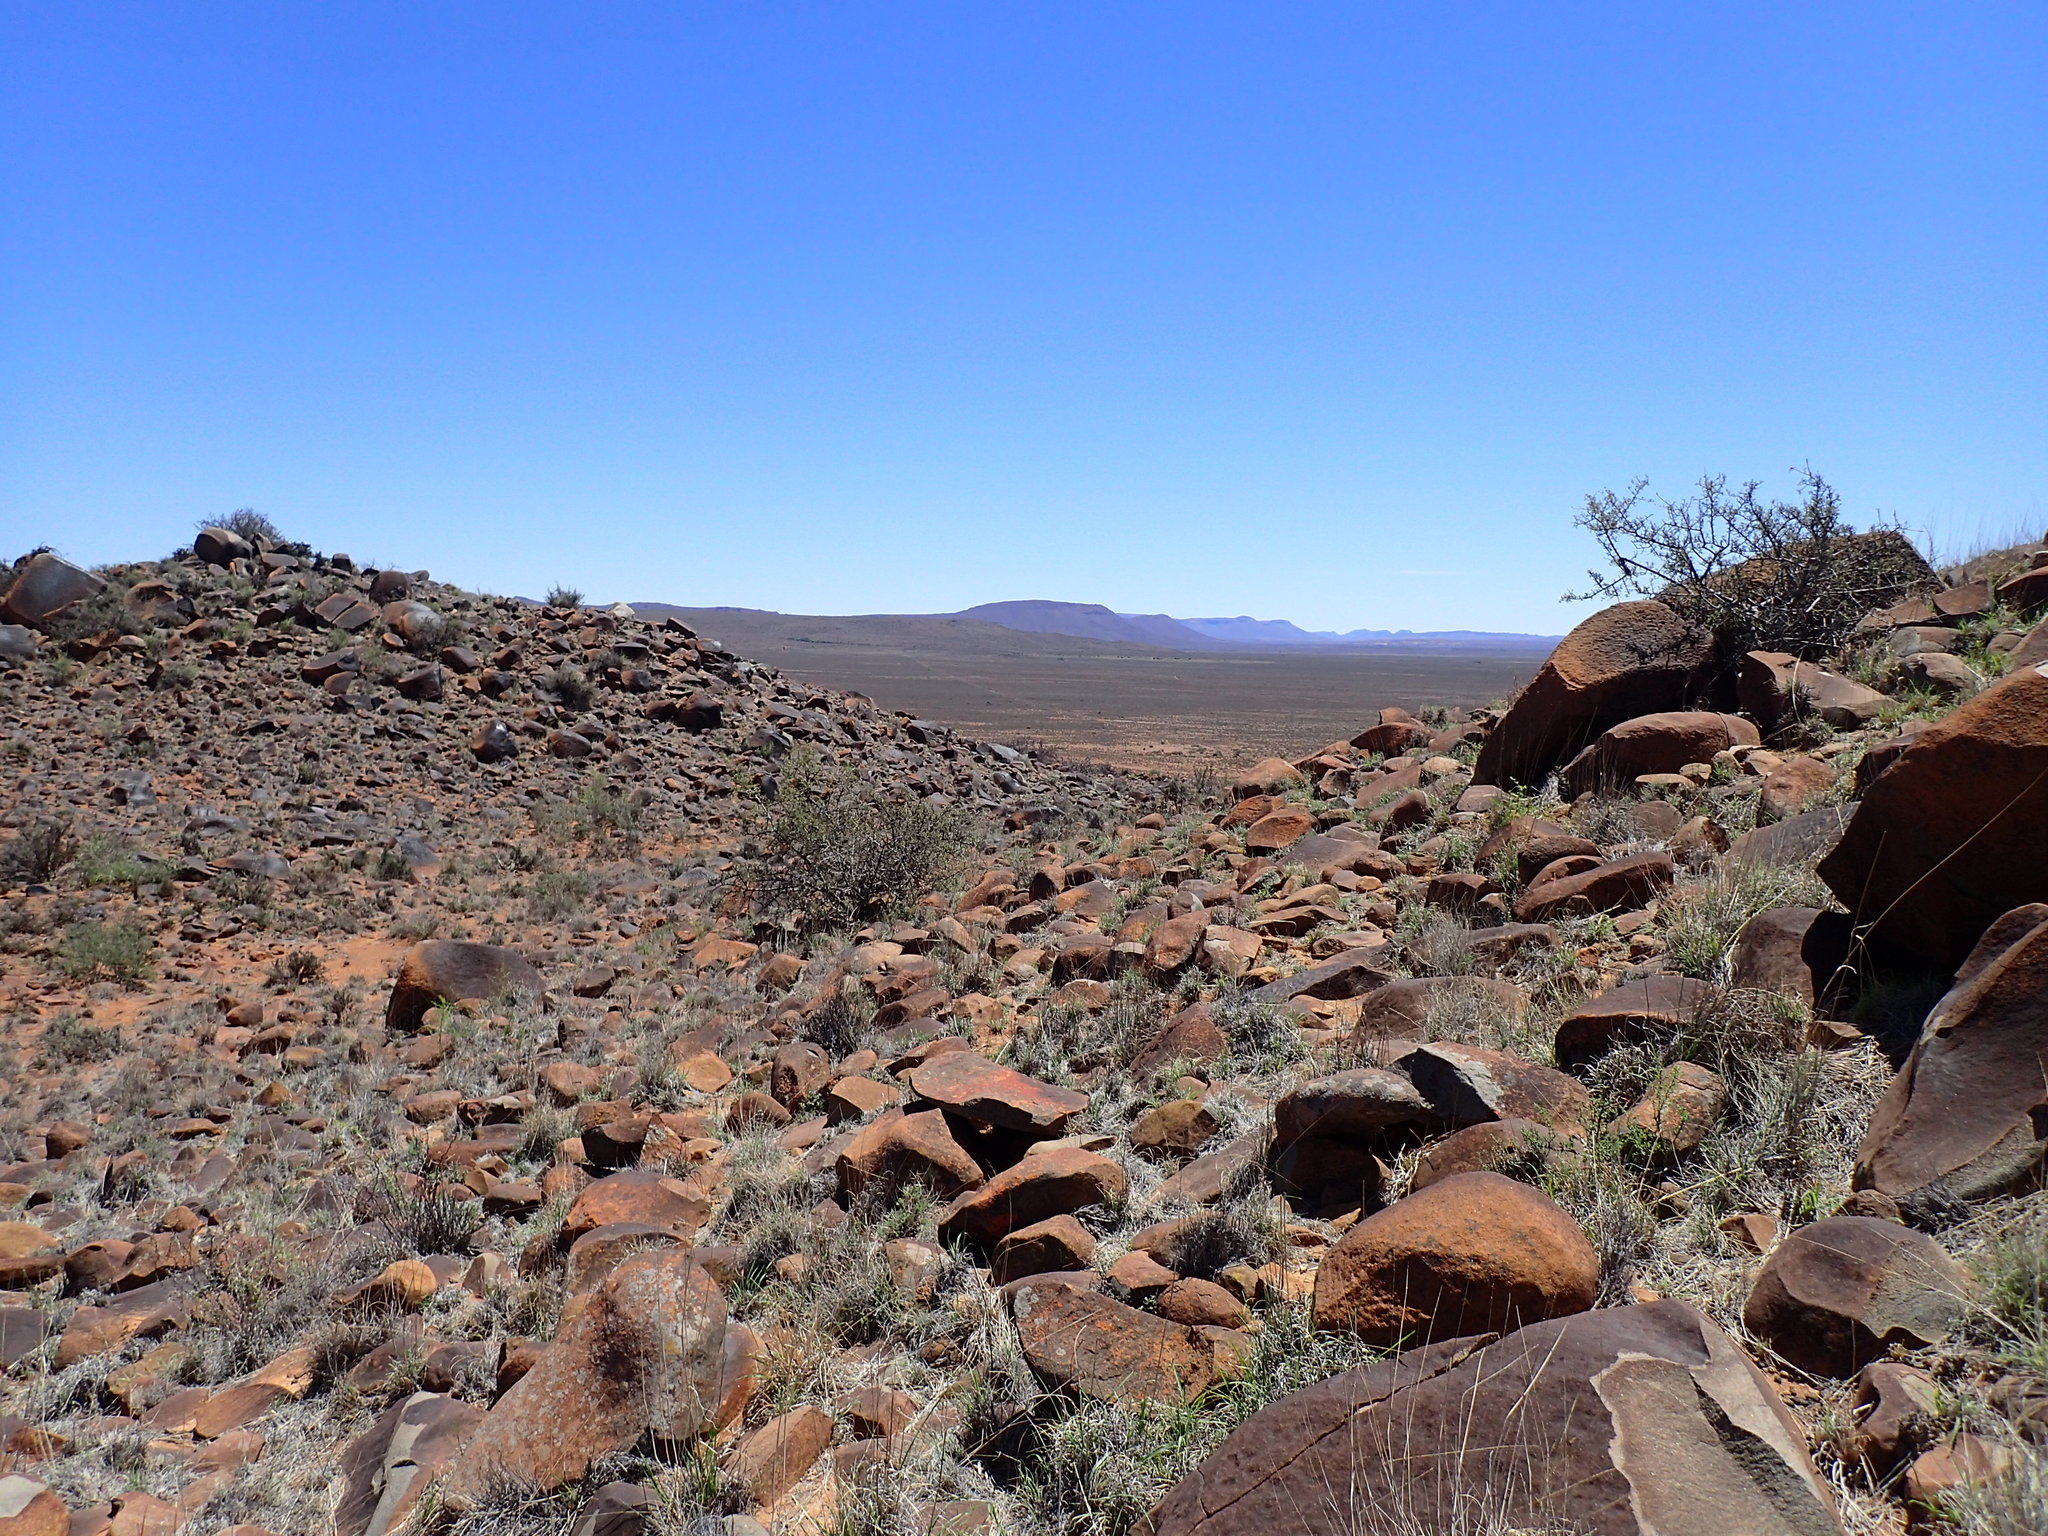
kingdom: Plantae
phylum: Tracheophyta
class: Magnoliopsida
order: Caryophyllales
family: Aizoaceae
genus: Ruschia
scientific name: Ruschia intricata
